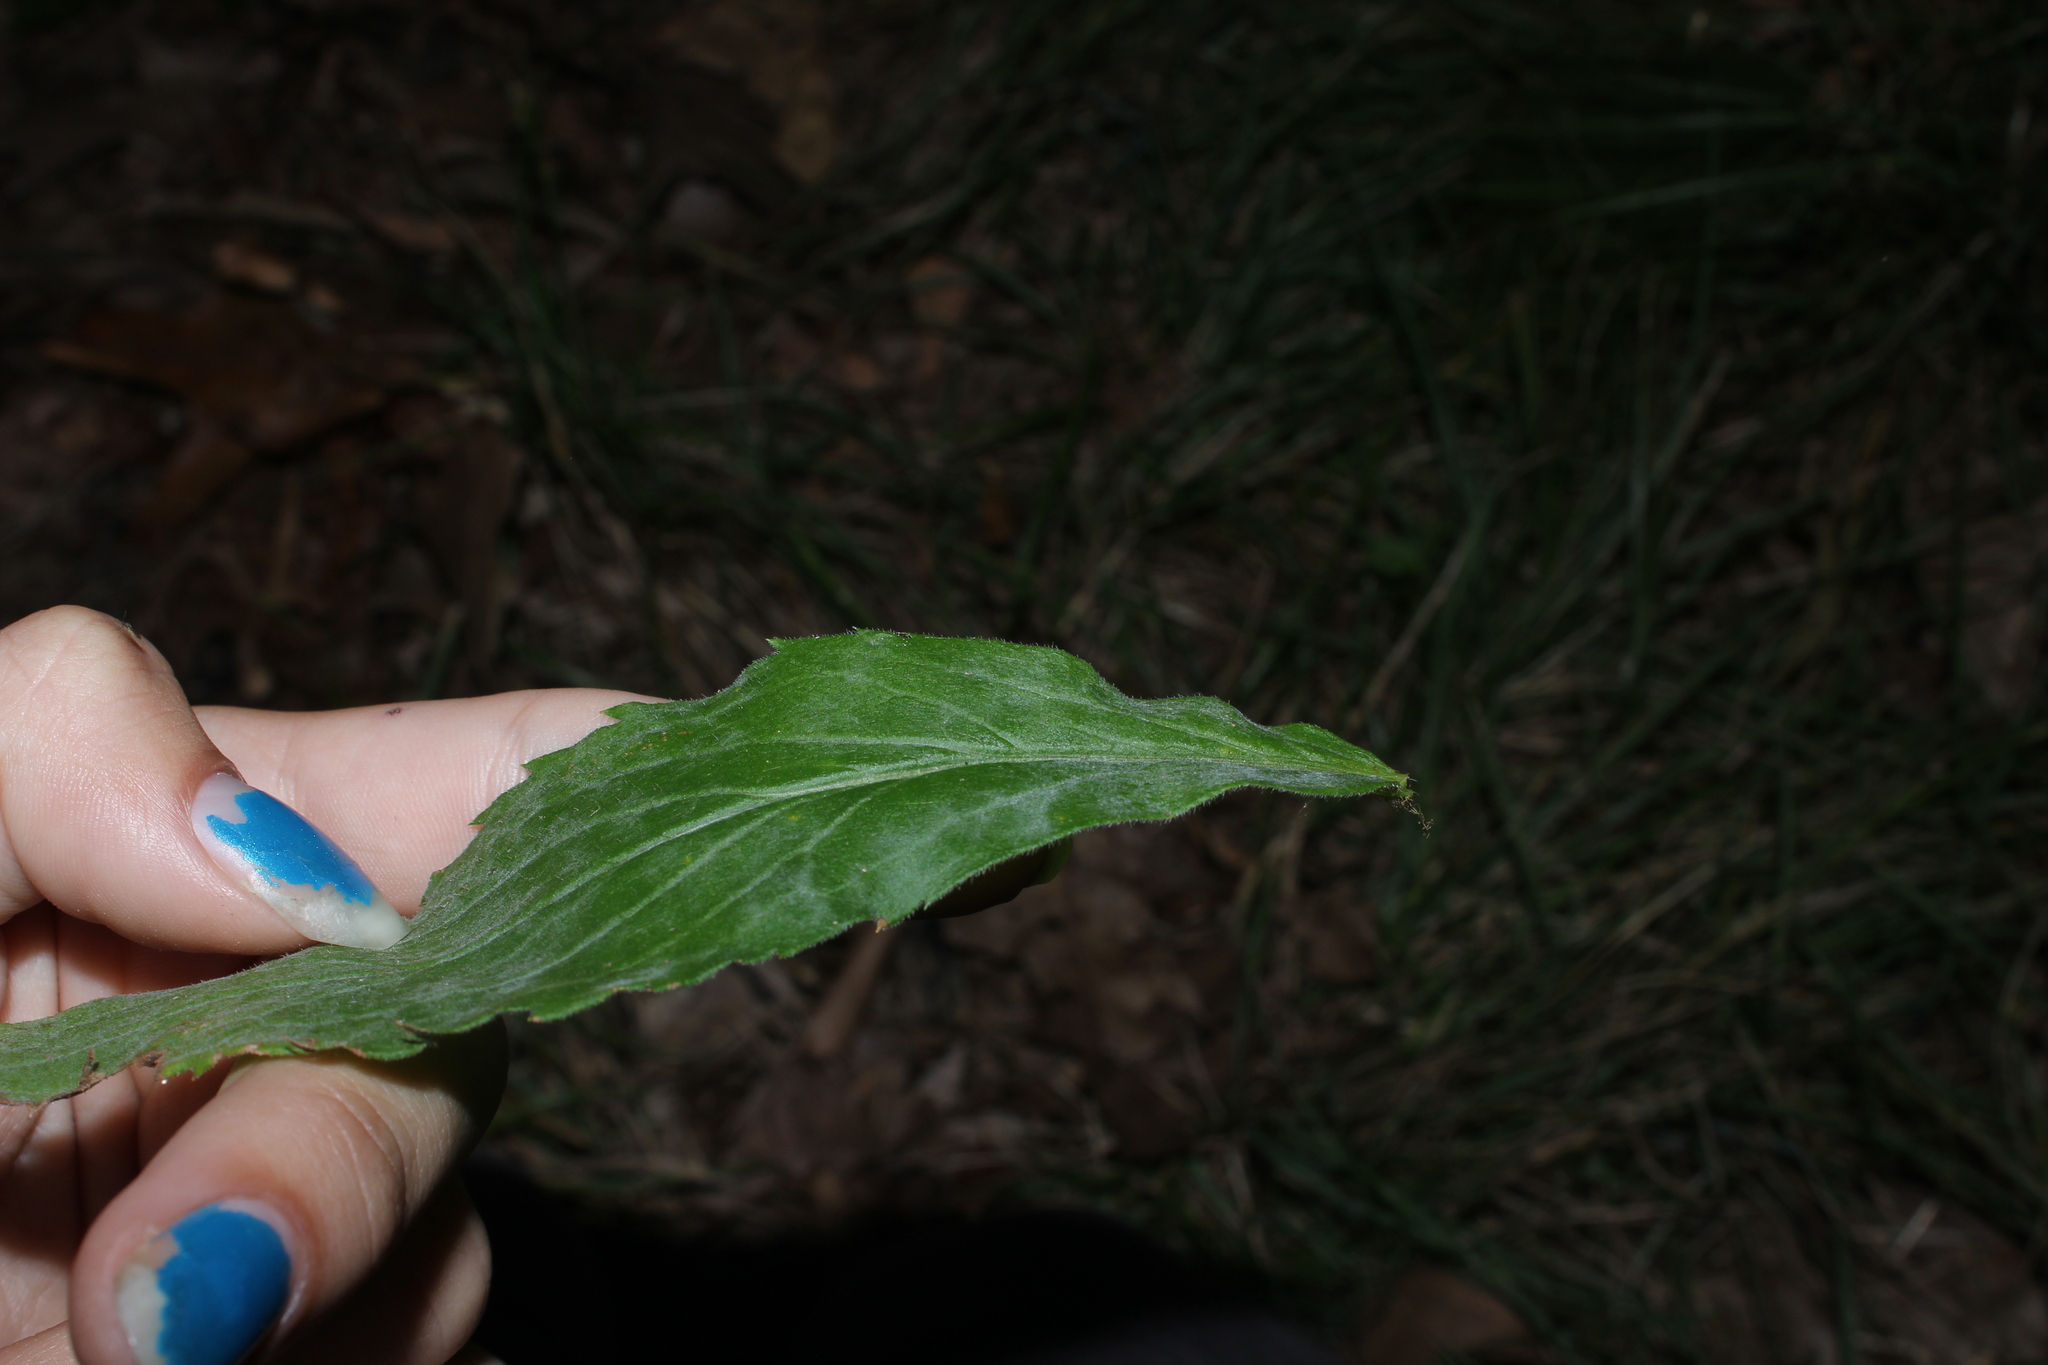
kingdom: Fungi
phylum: Ascomycota
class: Leotiomycetes
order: Helotiales
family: Erysiphaceae
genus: Golovinomyces
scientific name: Golovinomyces asterum
